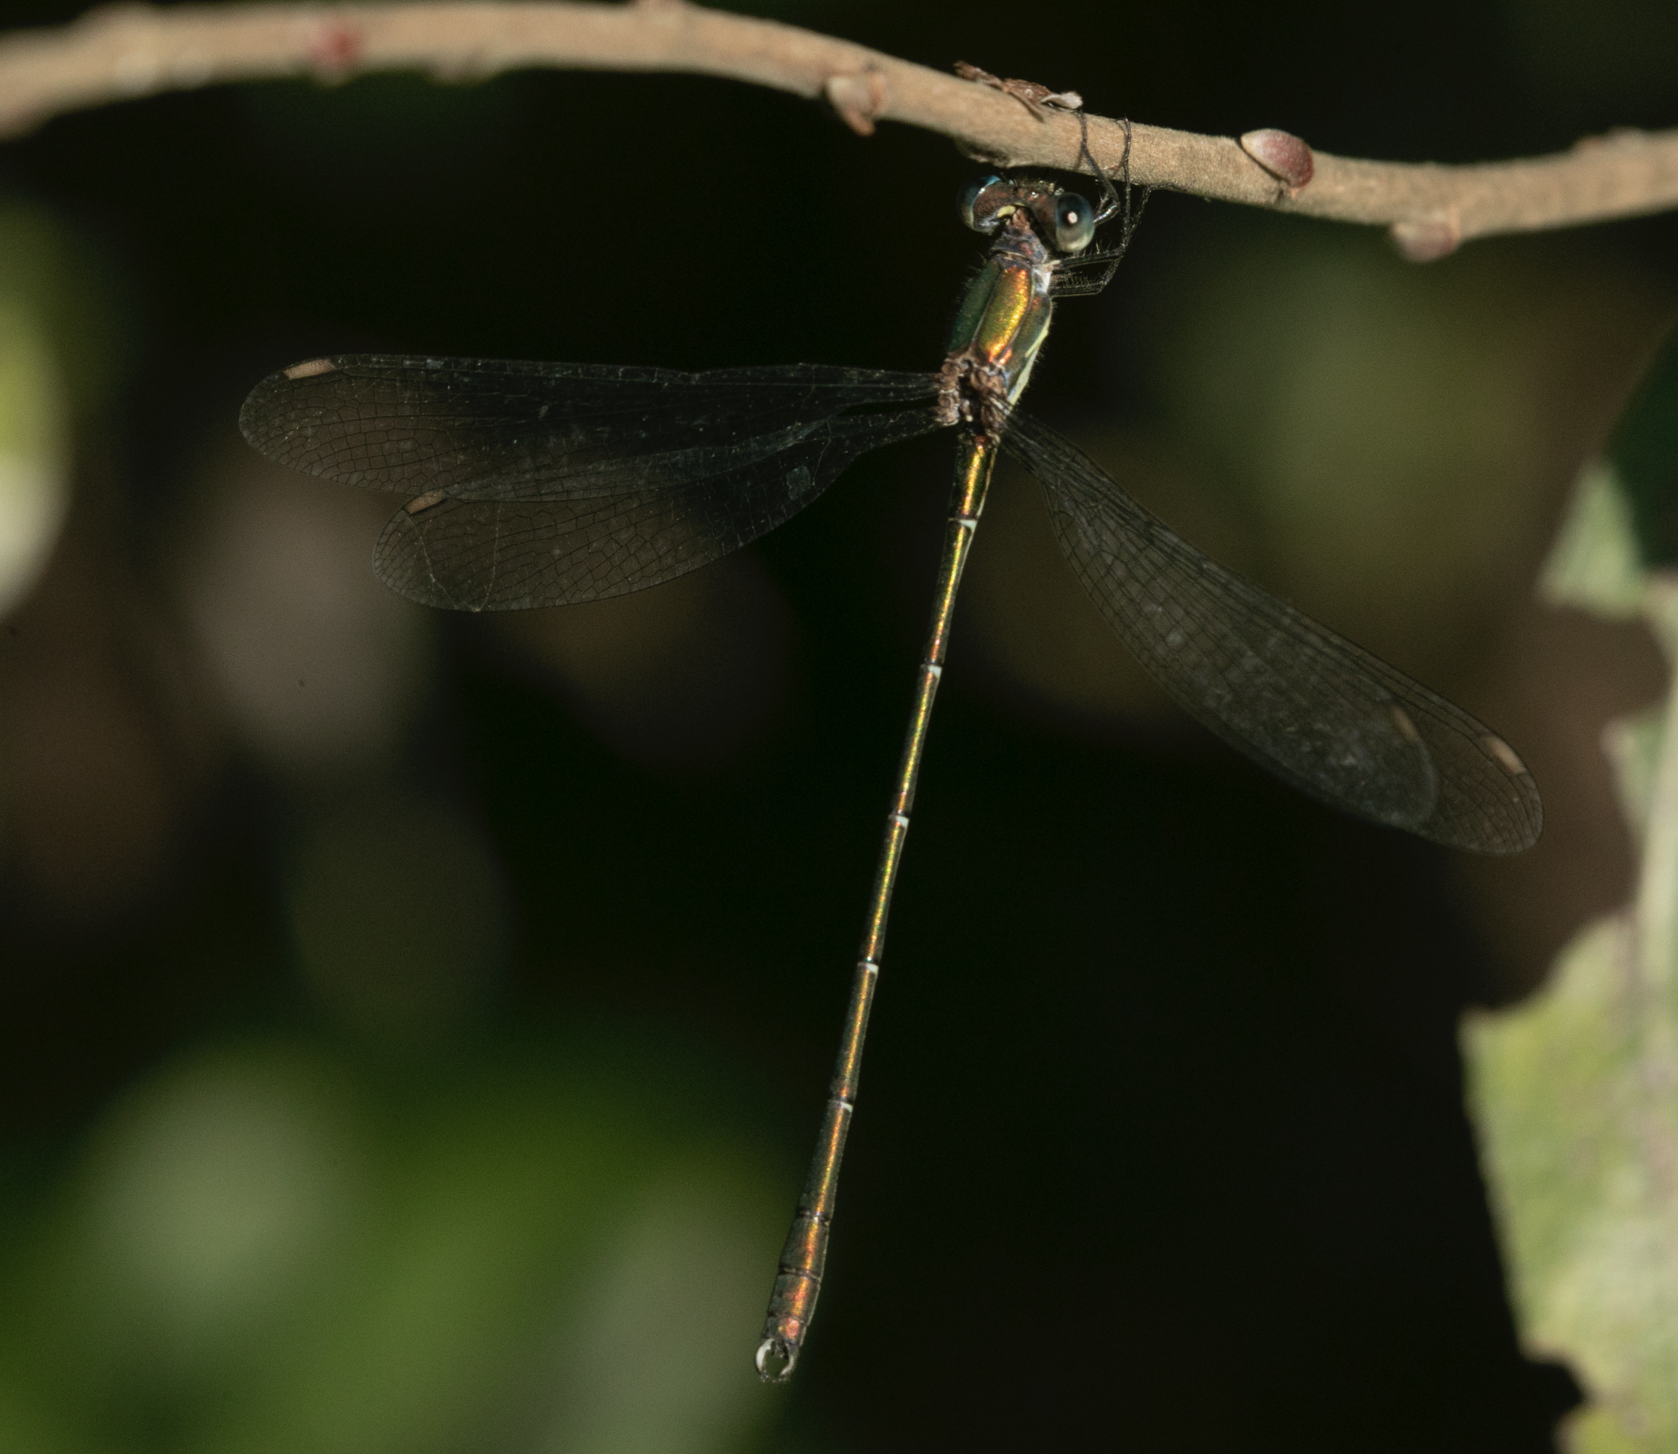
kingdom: Animalia
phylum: Arthropoda
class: Insecta
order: Odonata
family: Lestidae
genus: Chalcolestes
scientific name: Chalcolestes viridis
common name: Green emerald damselfly
